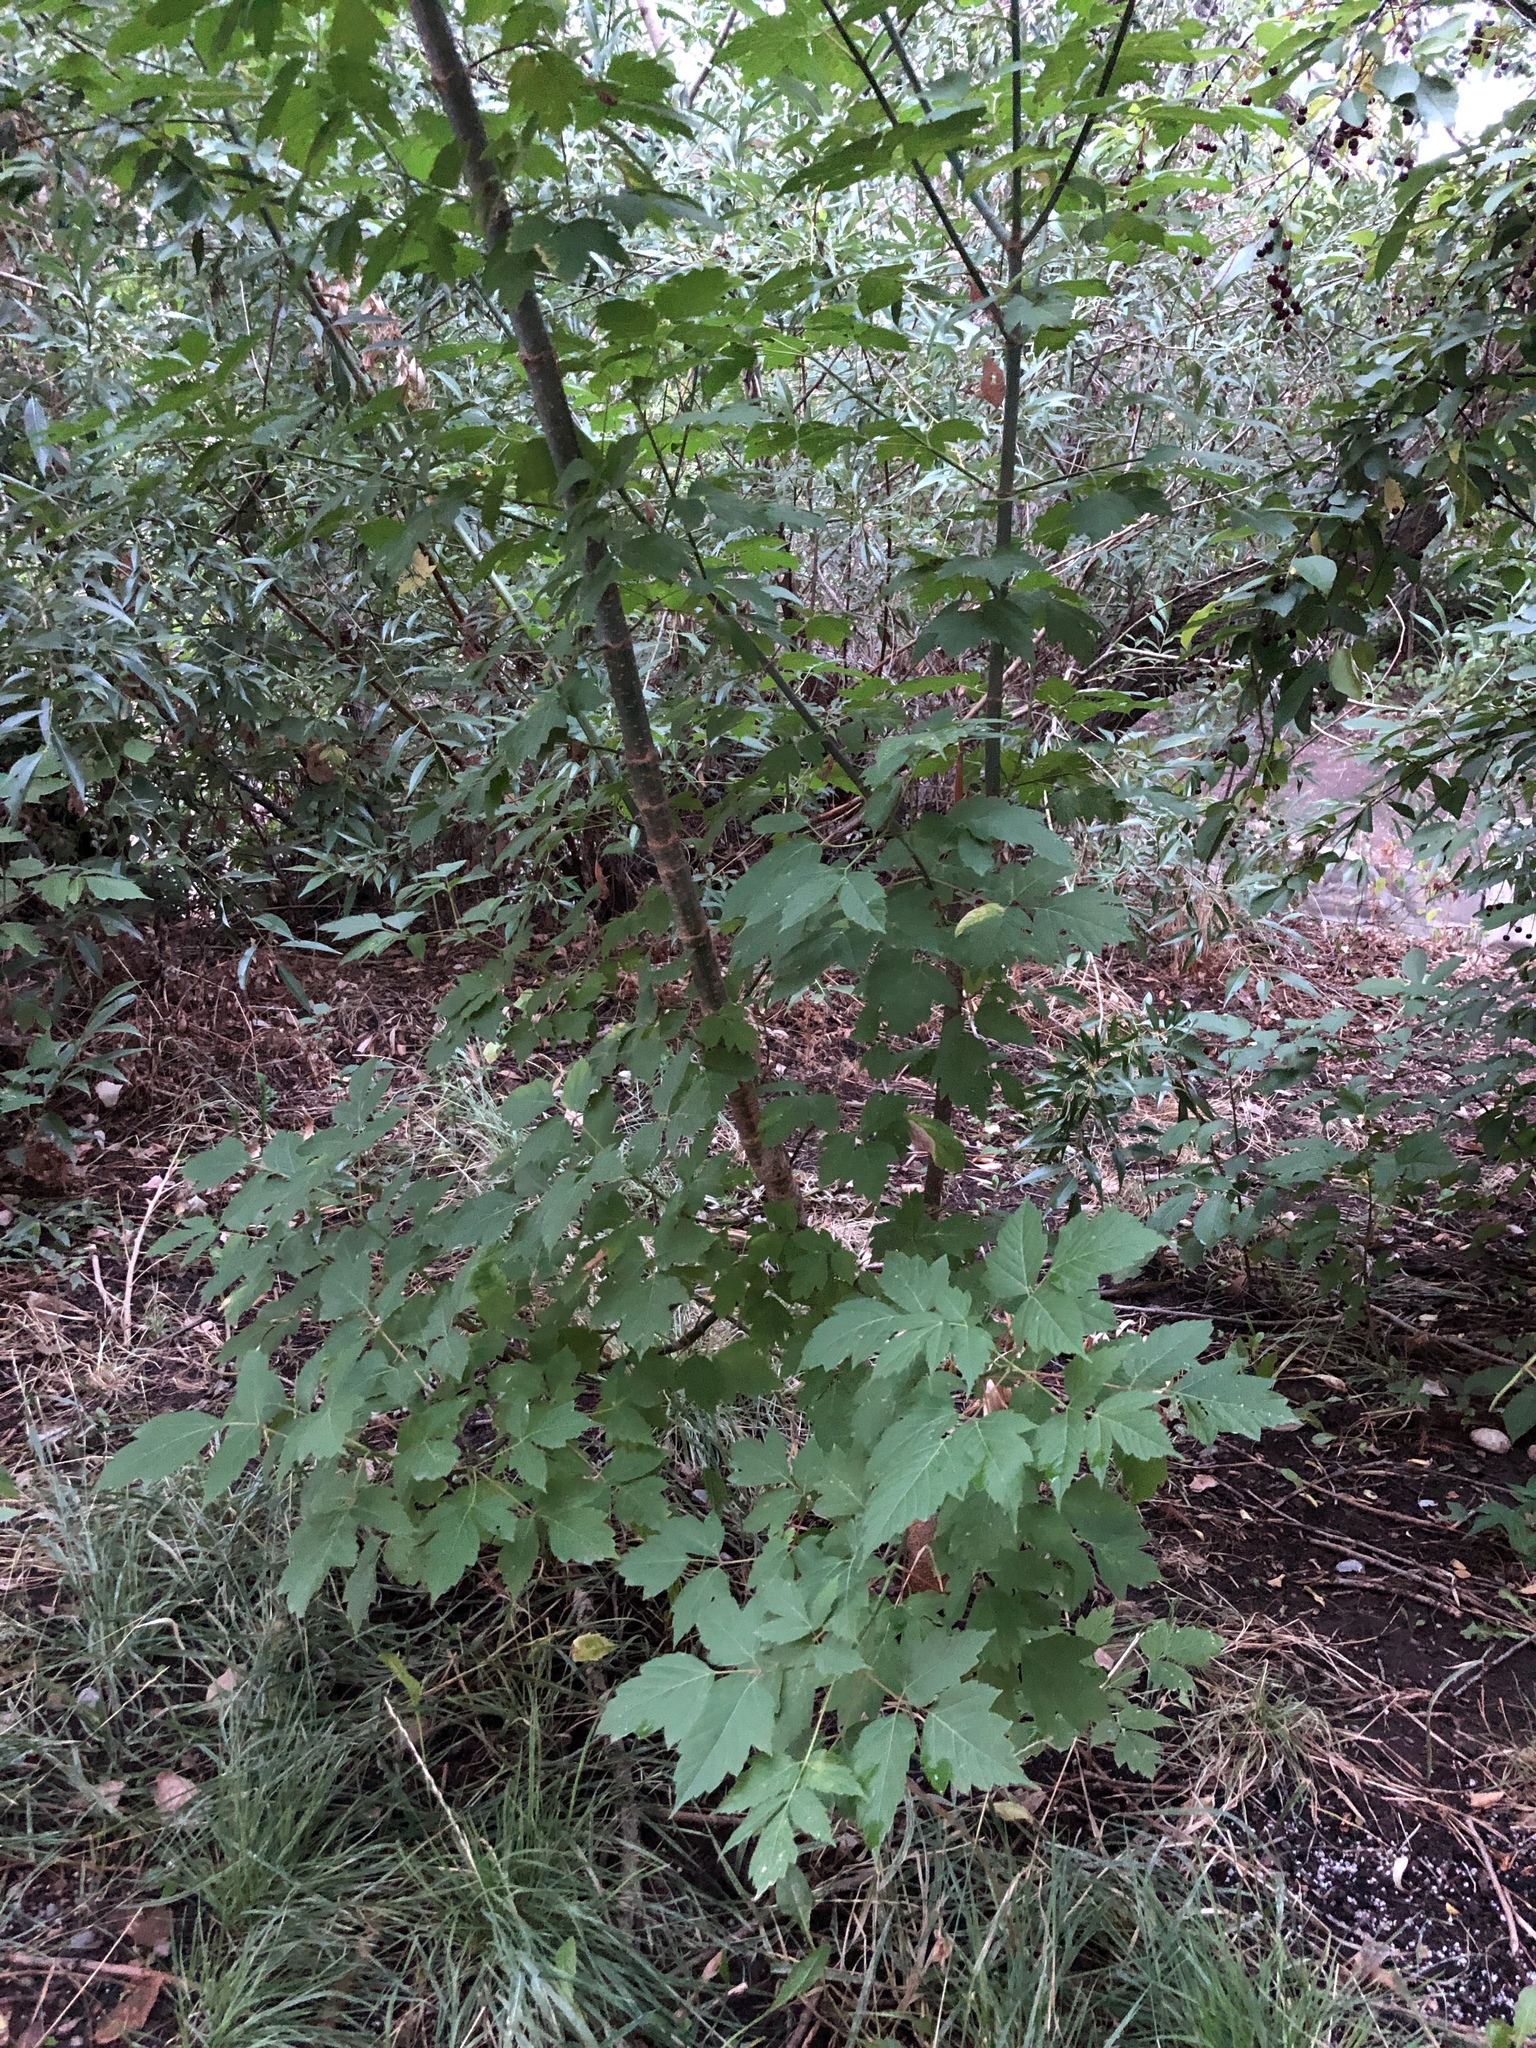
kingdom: Plantae
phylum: Tracheophyta
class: Magnoliopsida
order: Sapindales
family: Sapindaceae
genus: Acer
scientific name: Acer negundo
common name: Ashleaf maple
